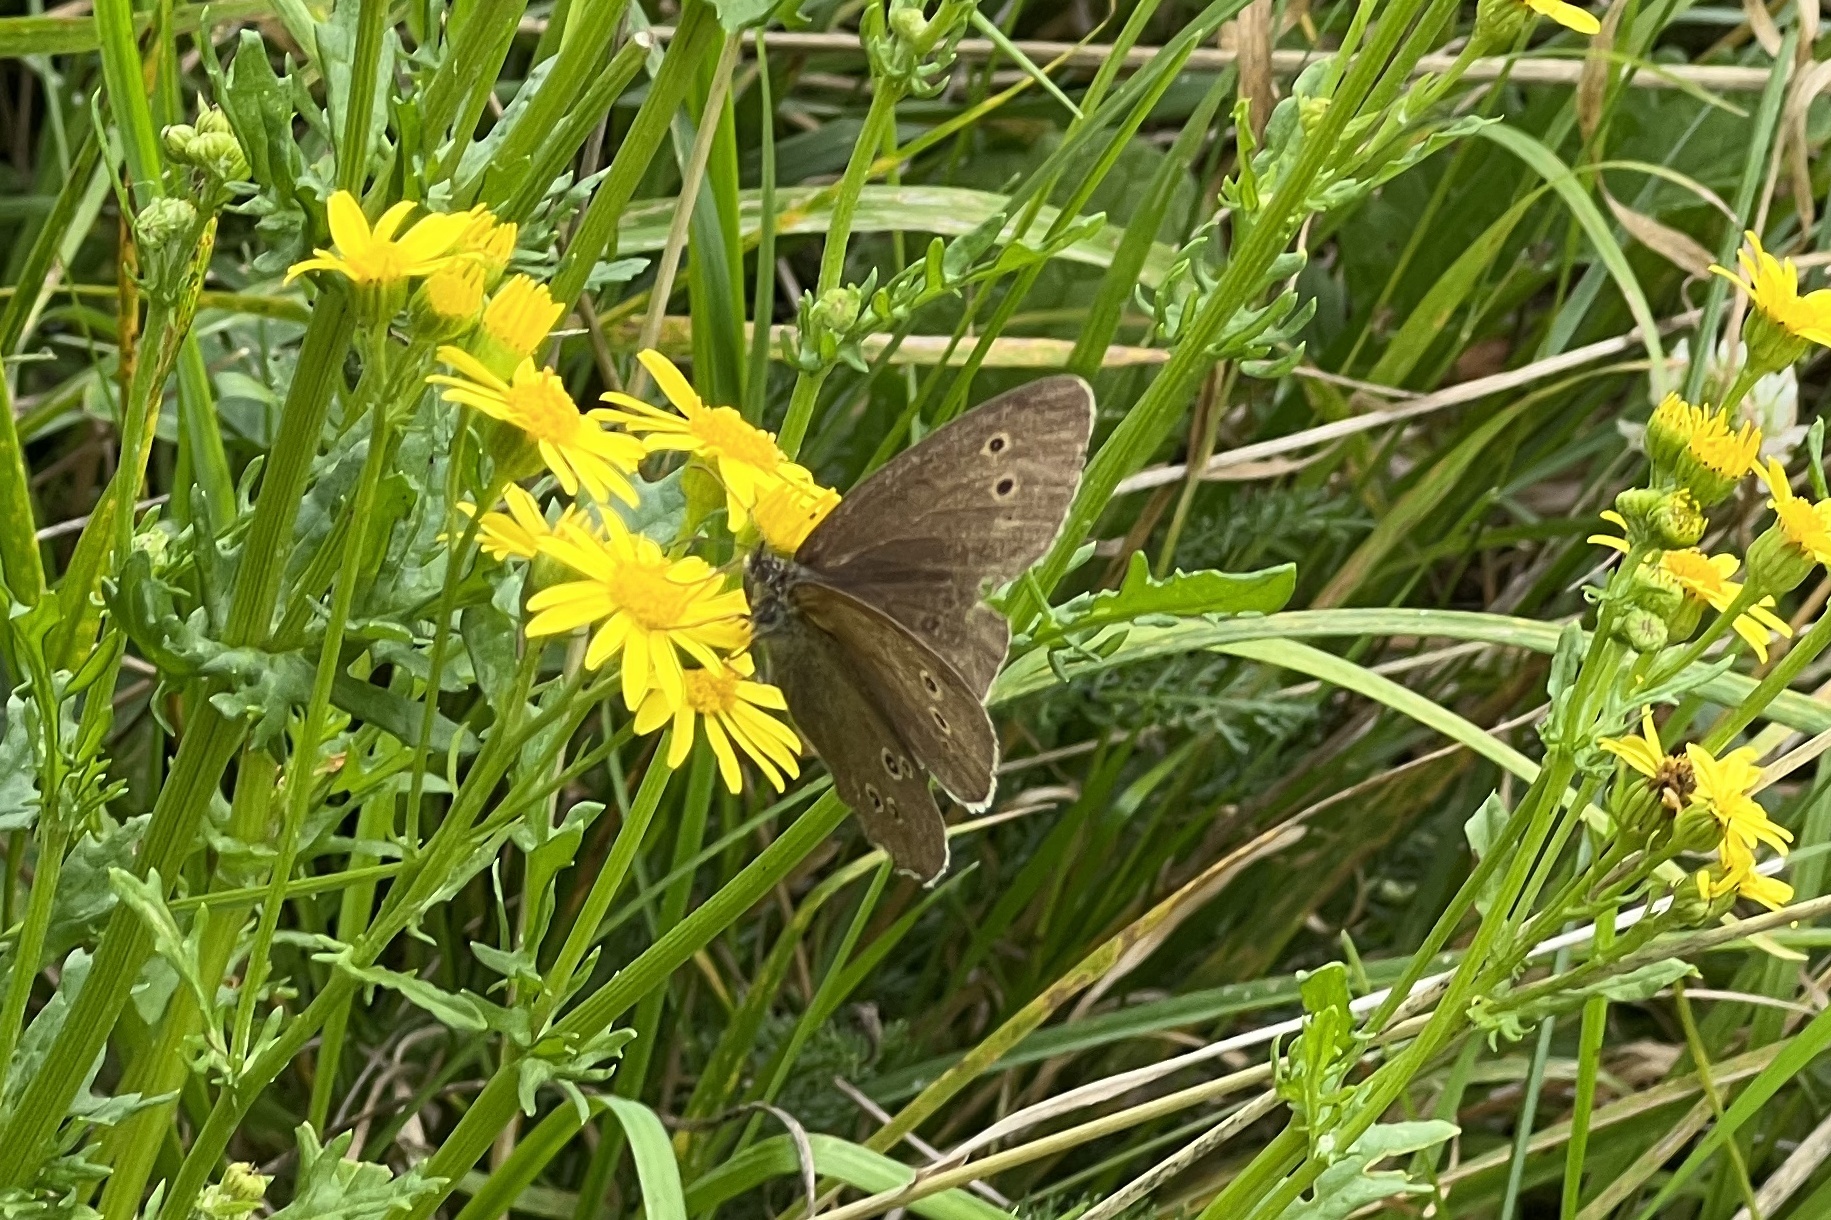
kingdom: Animalia
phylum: Arthropoda
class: Insecta
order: Lepidoptera
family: Nymphalidae
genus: Aphantopus
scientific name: Aphantopus hyperantus
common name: Ringlet
